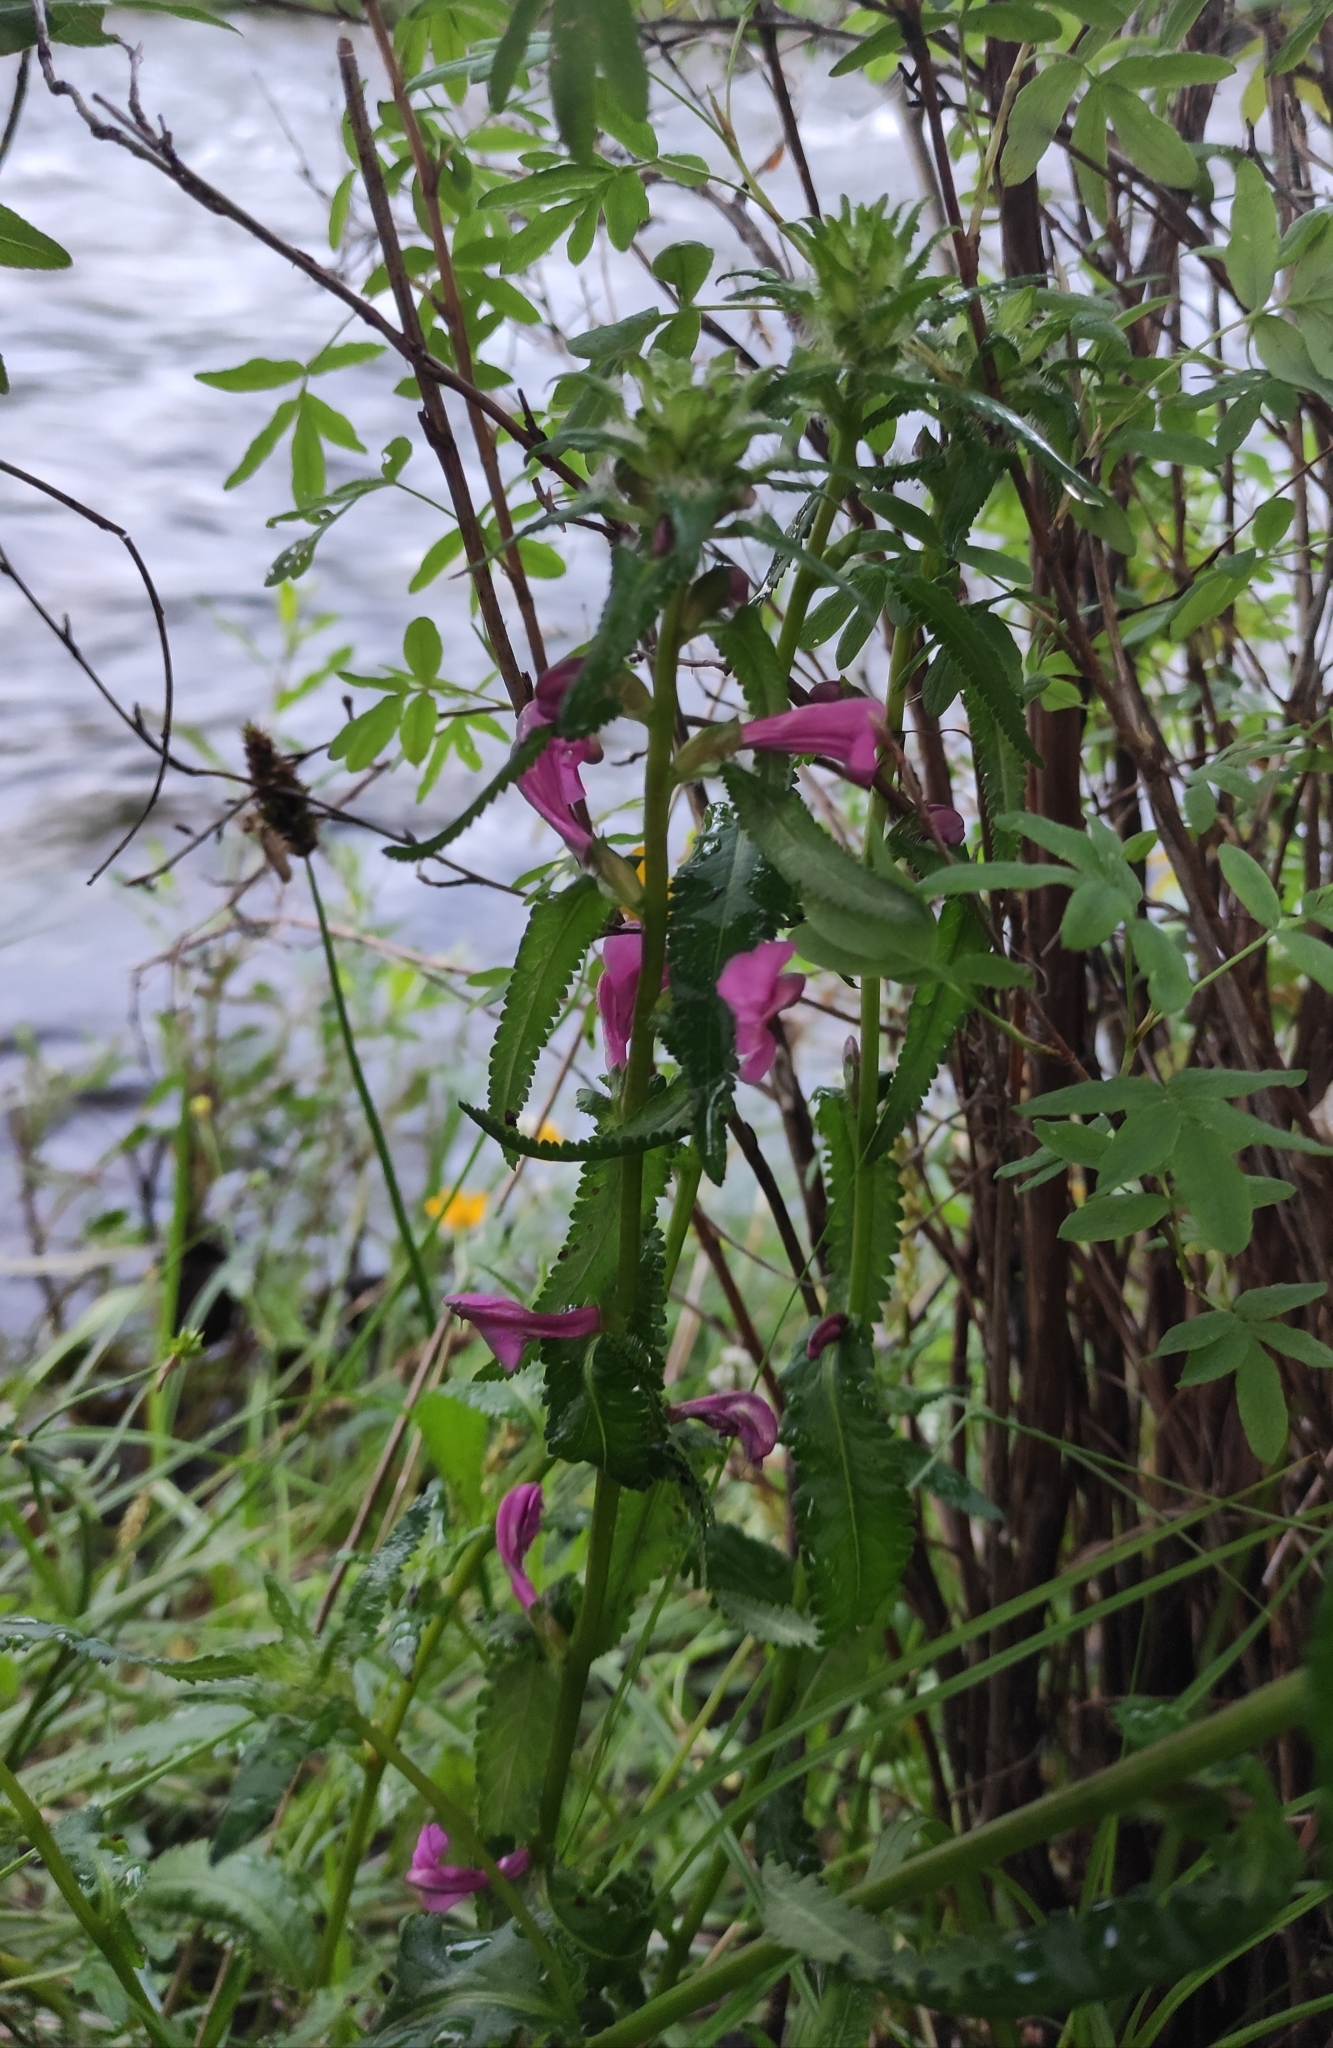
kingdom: Plantae
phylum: Tracheophyta
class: Magnoliopsida
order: Lamiales
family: Orobanchaceae
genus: Pedicularis
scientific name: Pedicularis resupinata
